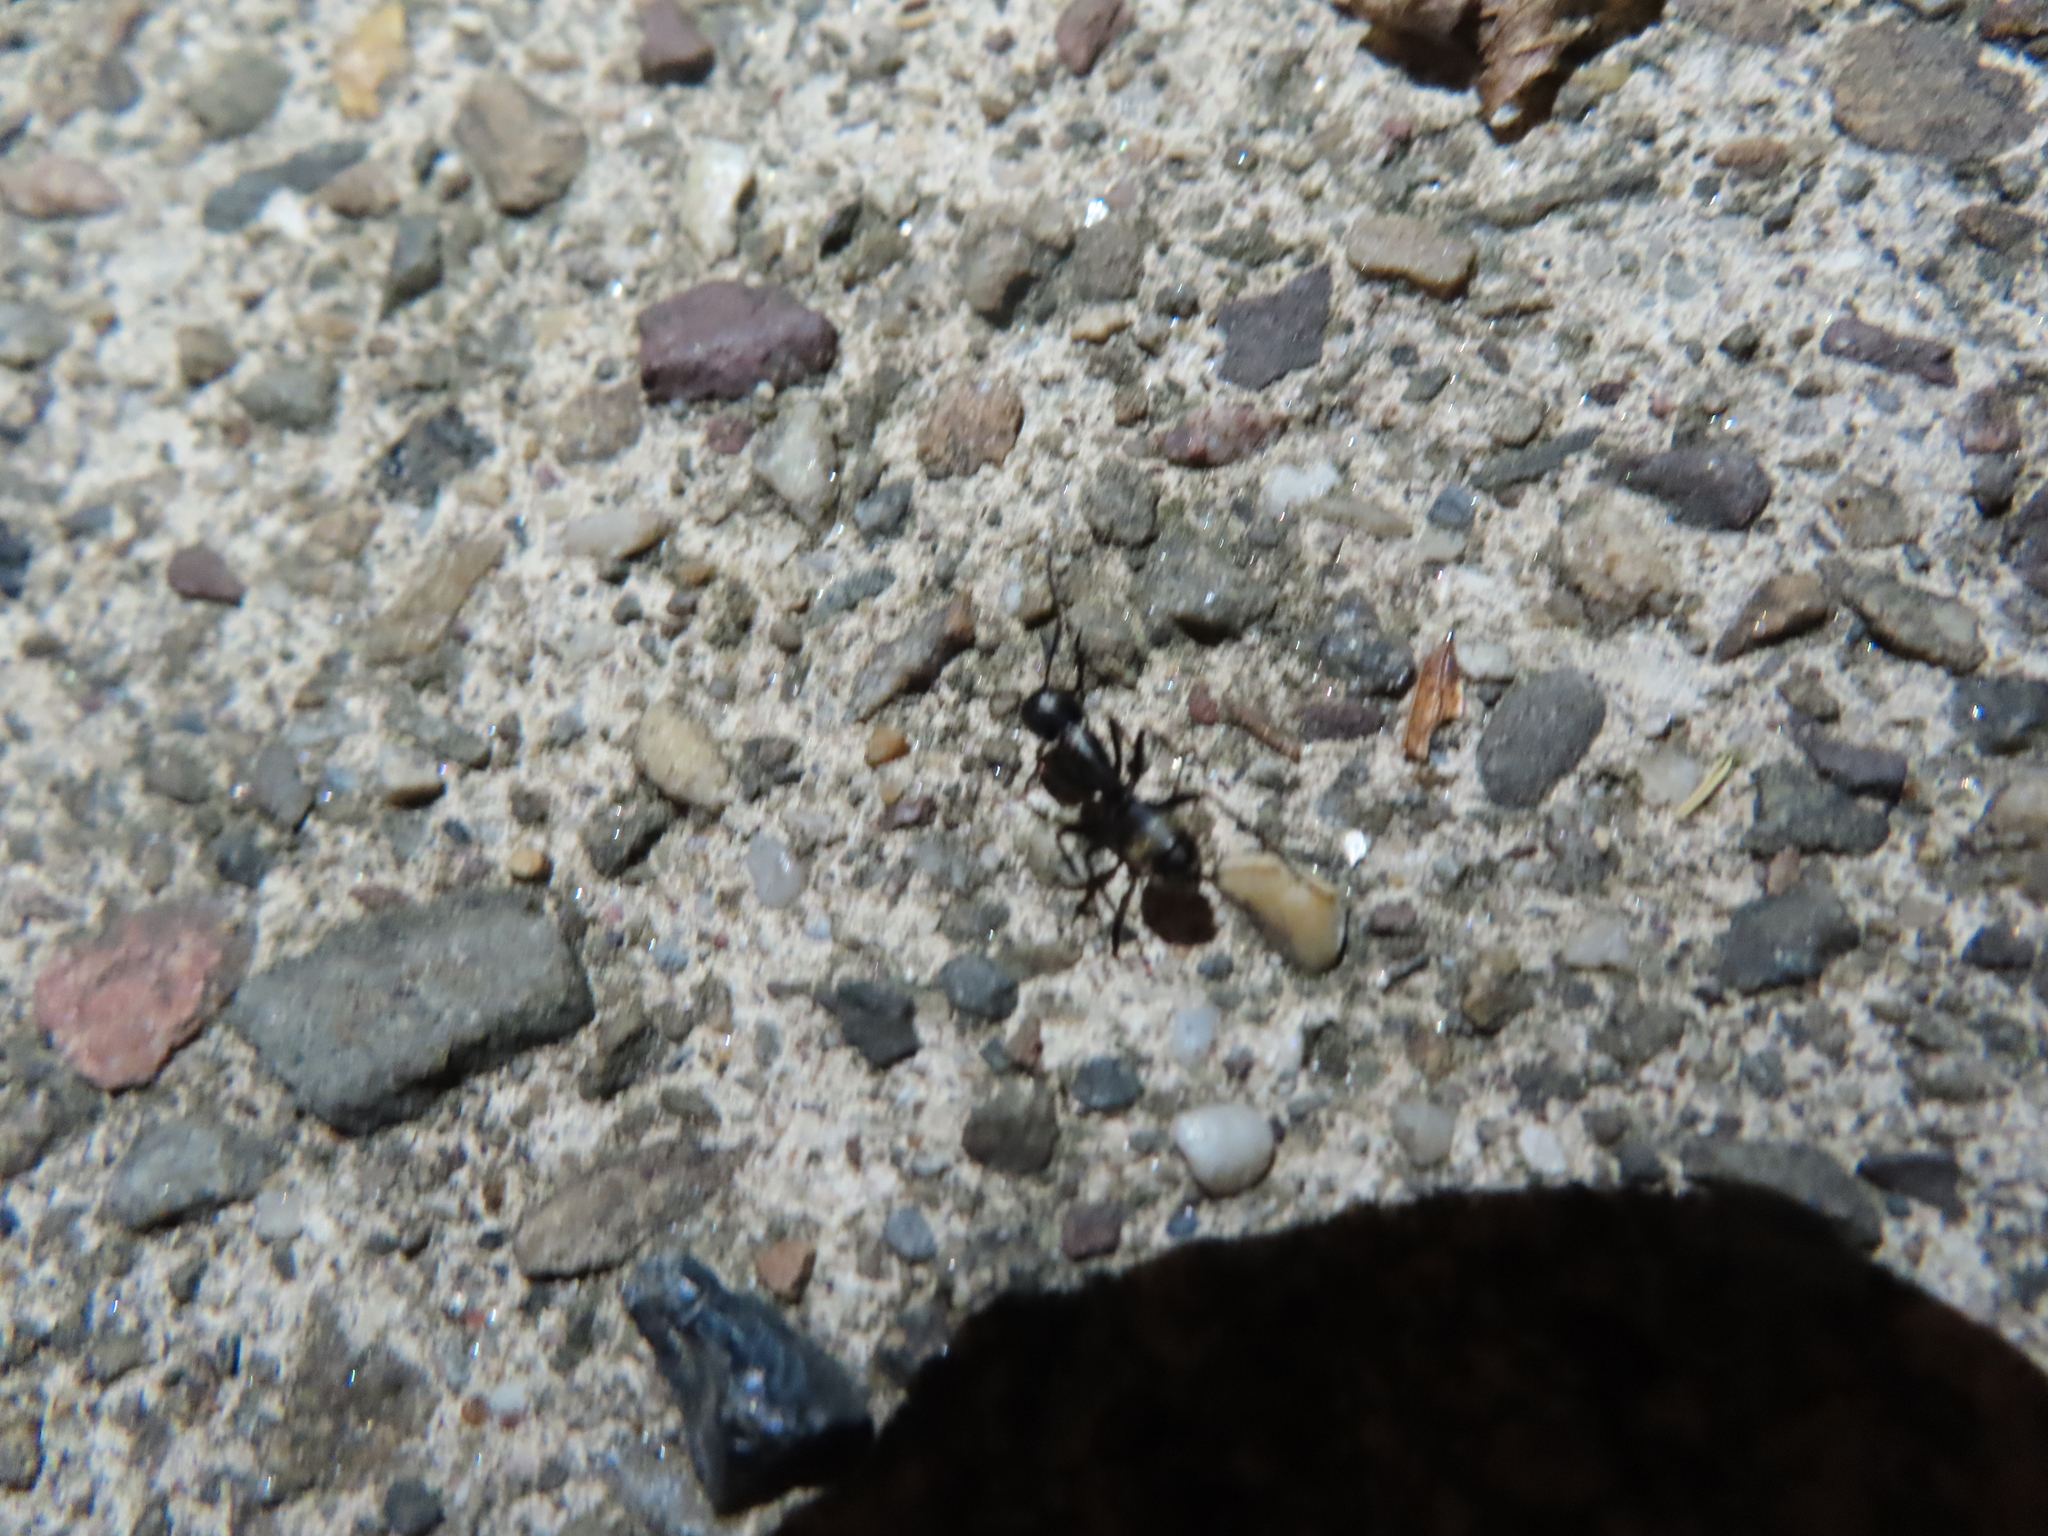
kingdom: Animalia
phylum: Arthropoda
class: Insecta
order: Hymenoptera
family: Formicidae
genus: Camponotus
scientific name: Camponotus pennsylvanicus
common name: Black carpenter ant
